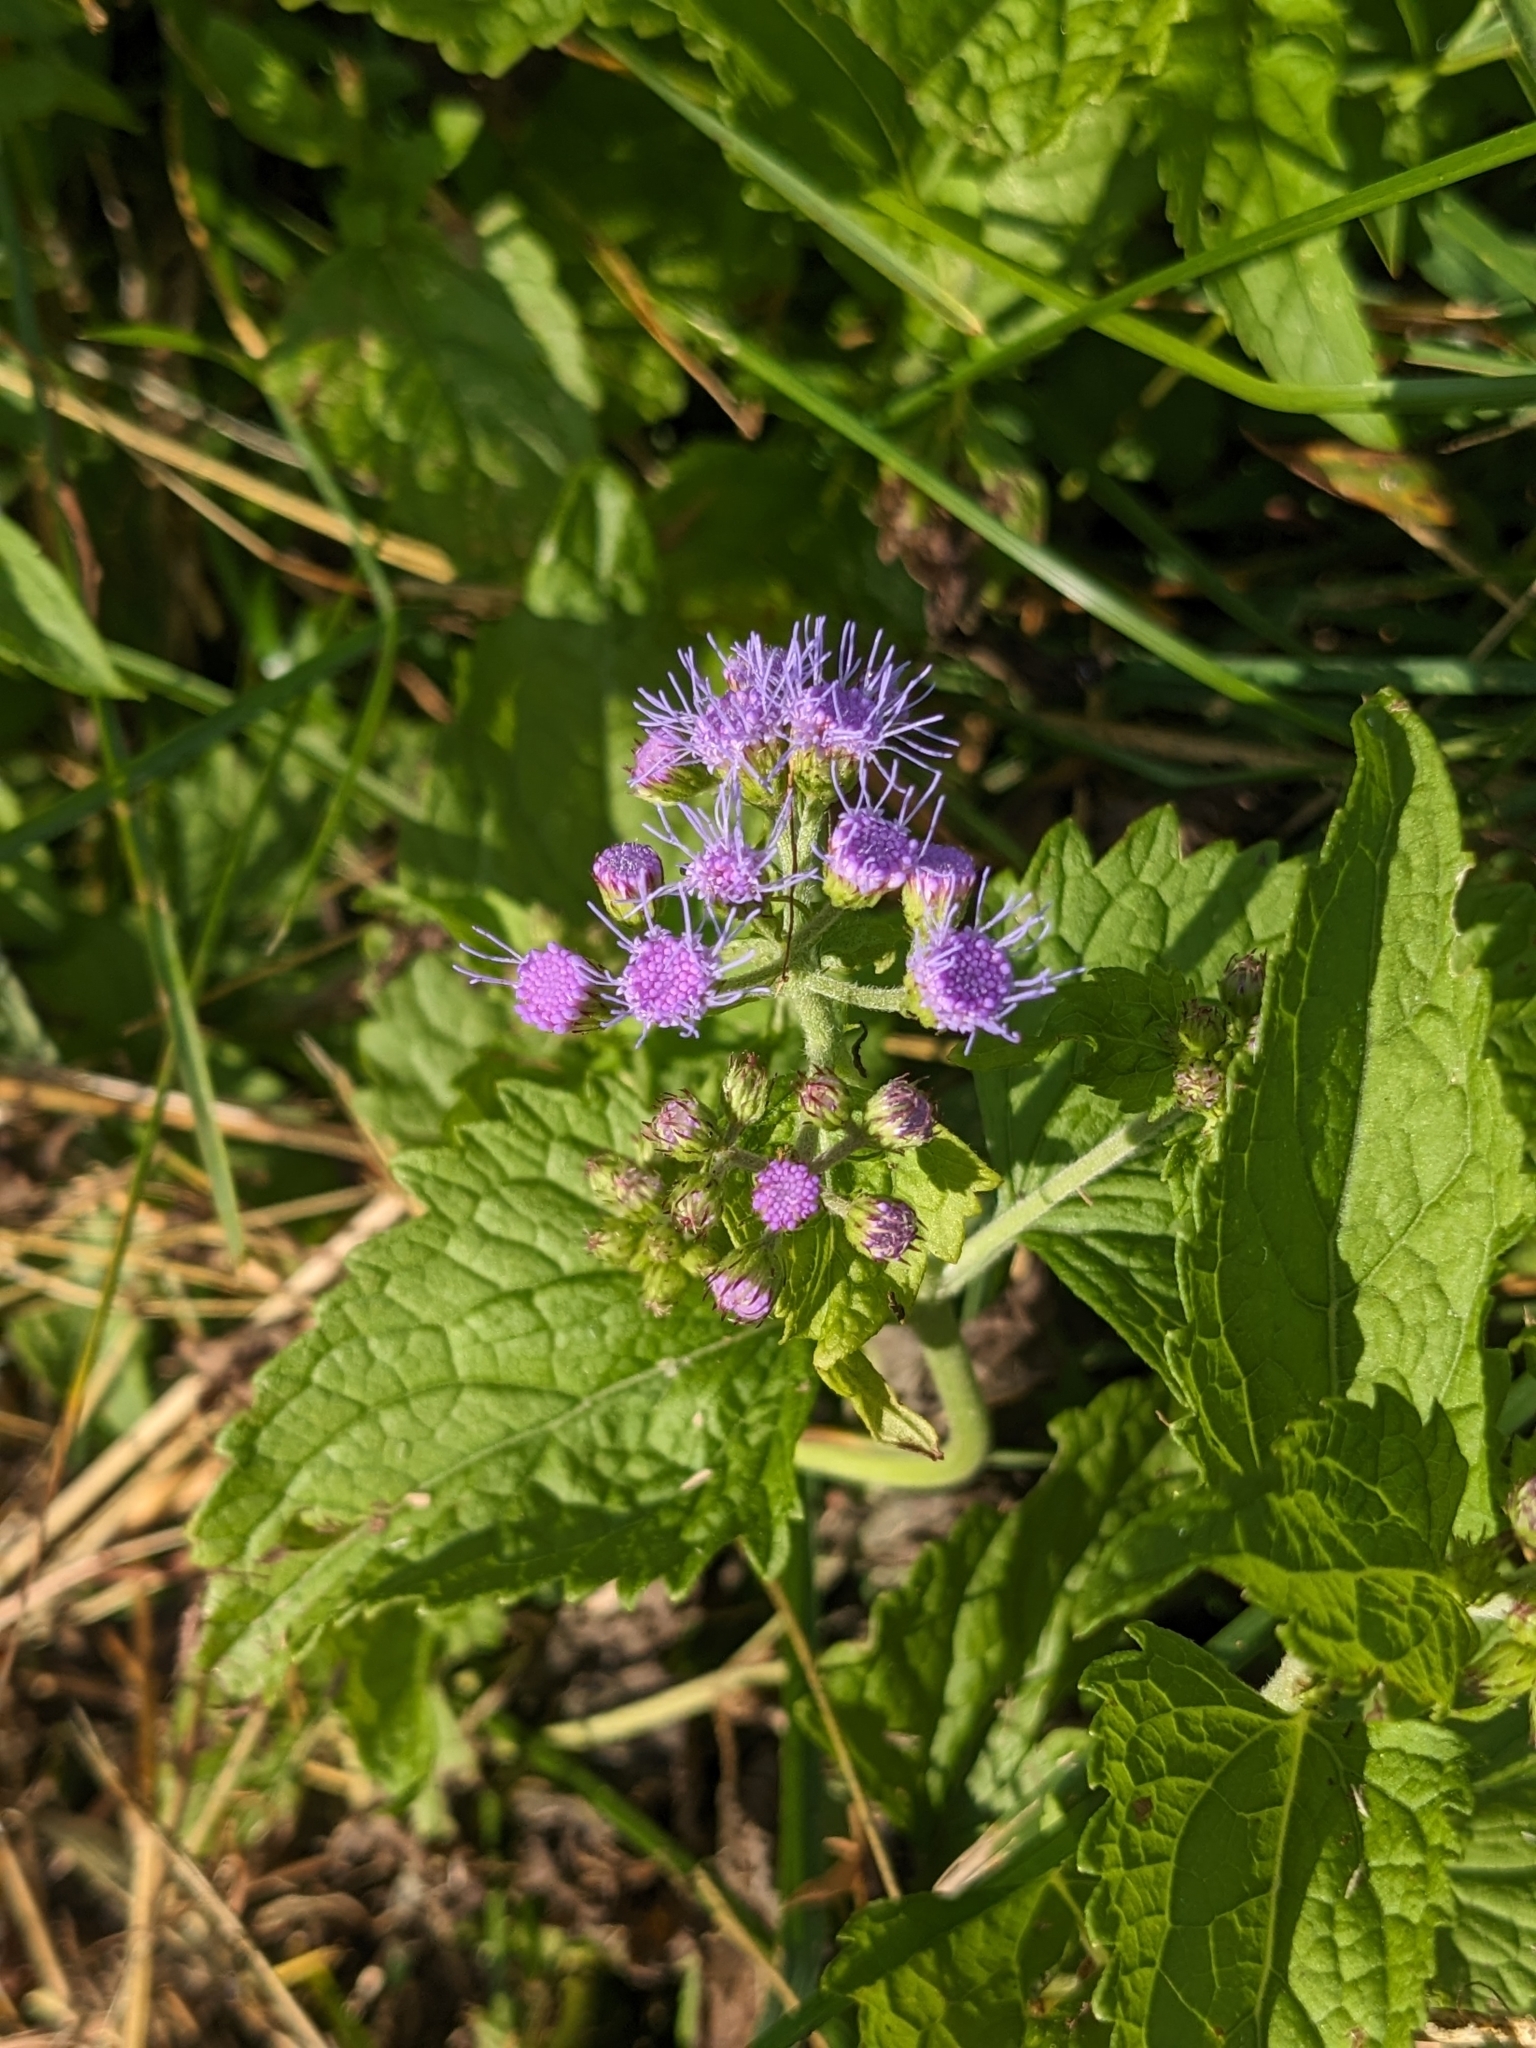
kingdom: Plantae
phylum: Tracheophyta
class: Magnoliopsida
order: Asterales
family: Asteraceae
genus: Conoclinium
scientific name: Conoclinium coelestinum
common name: Blue mistflower
